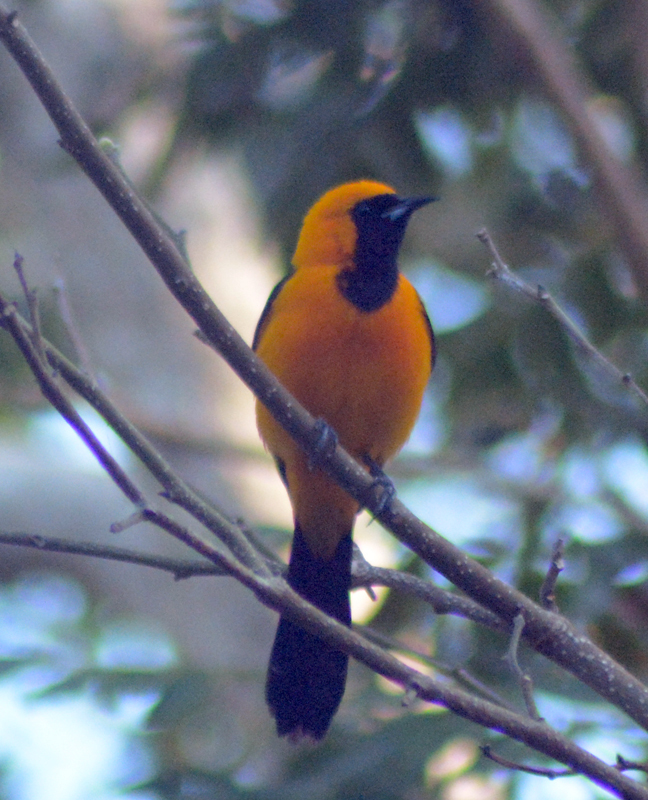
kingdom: Animalia
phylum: Chordata
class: Aves
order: Passeriformes
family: Icteridae
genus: Icterus
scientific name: Icterus cucullatus
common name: Hooded oriole
